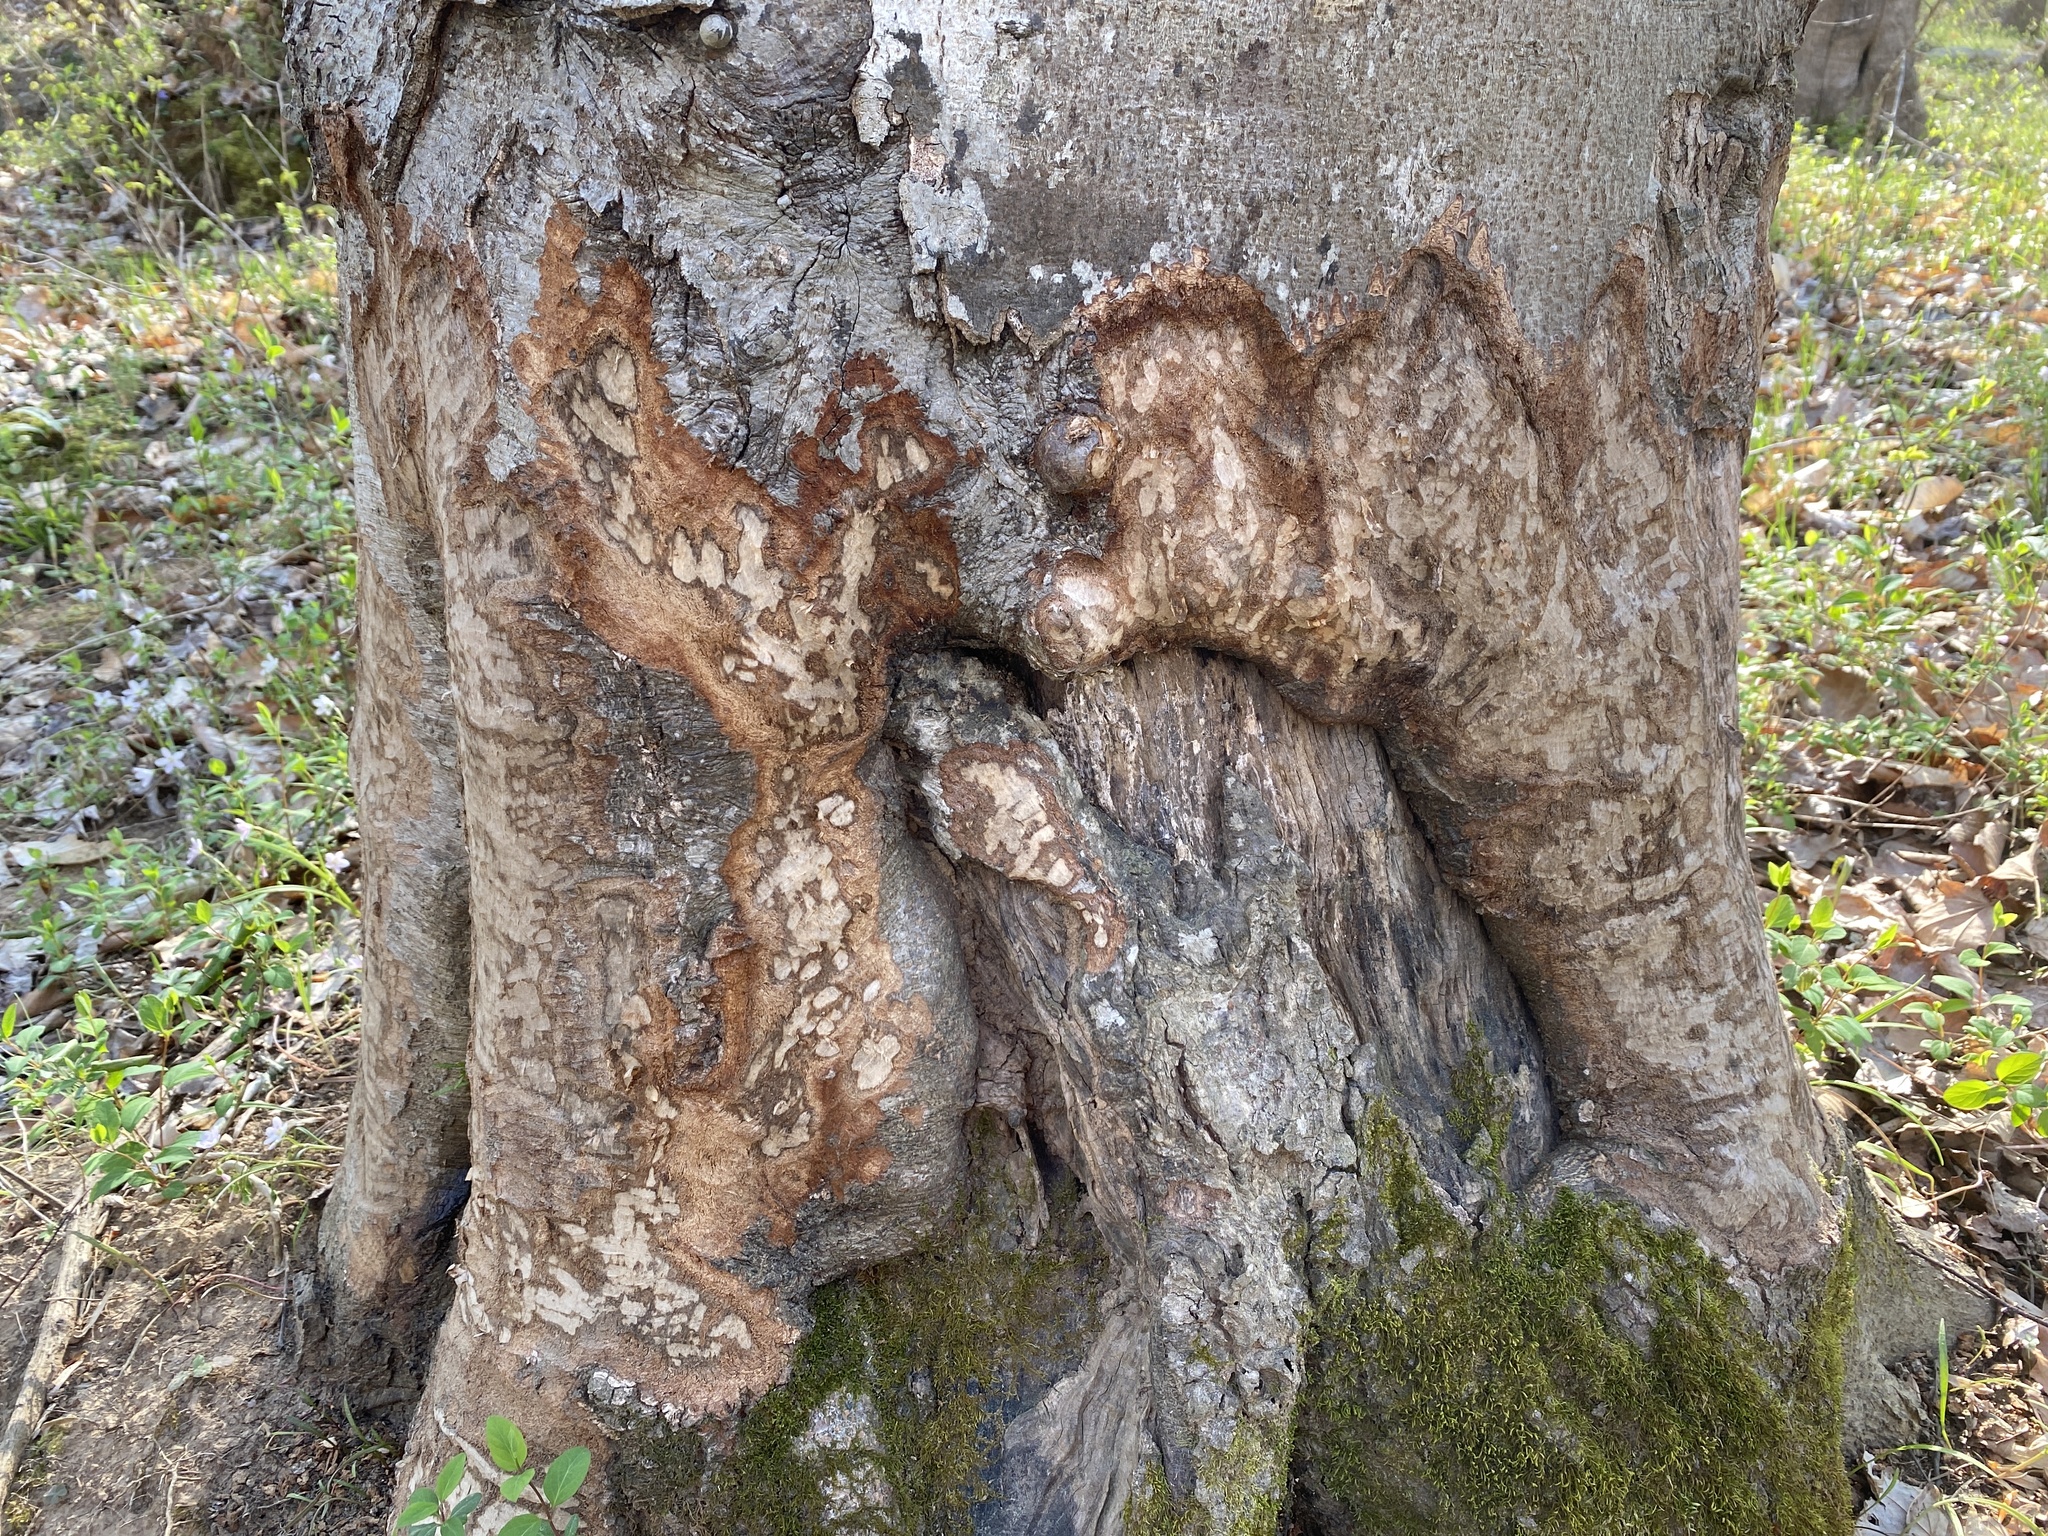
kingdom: Animalia
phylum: Chordata
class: Mammalia
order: Rodentia
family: Castoridae
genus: Castor
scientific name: Castor canadensis
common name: American beaver
